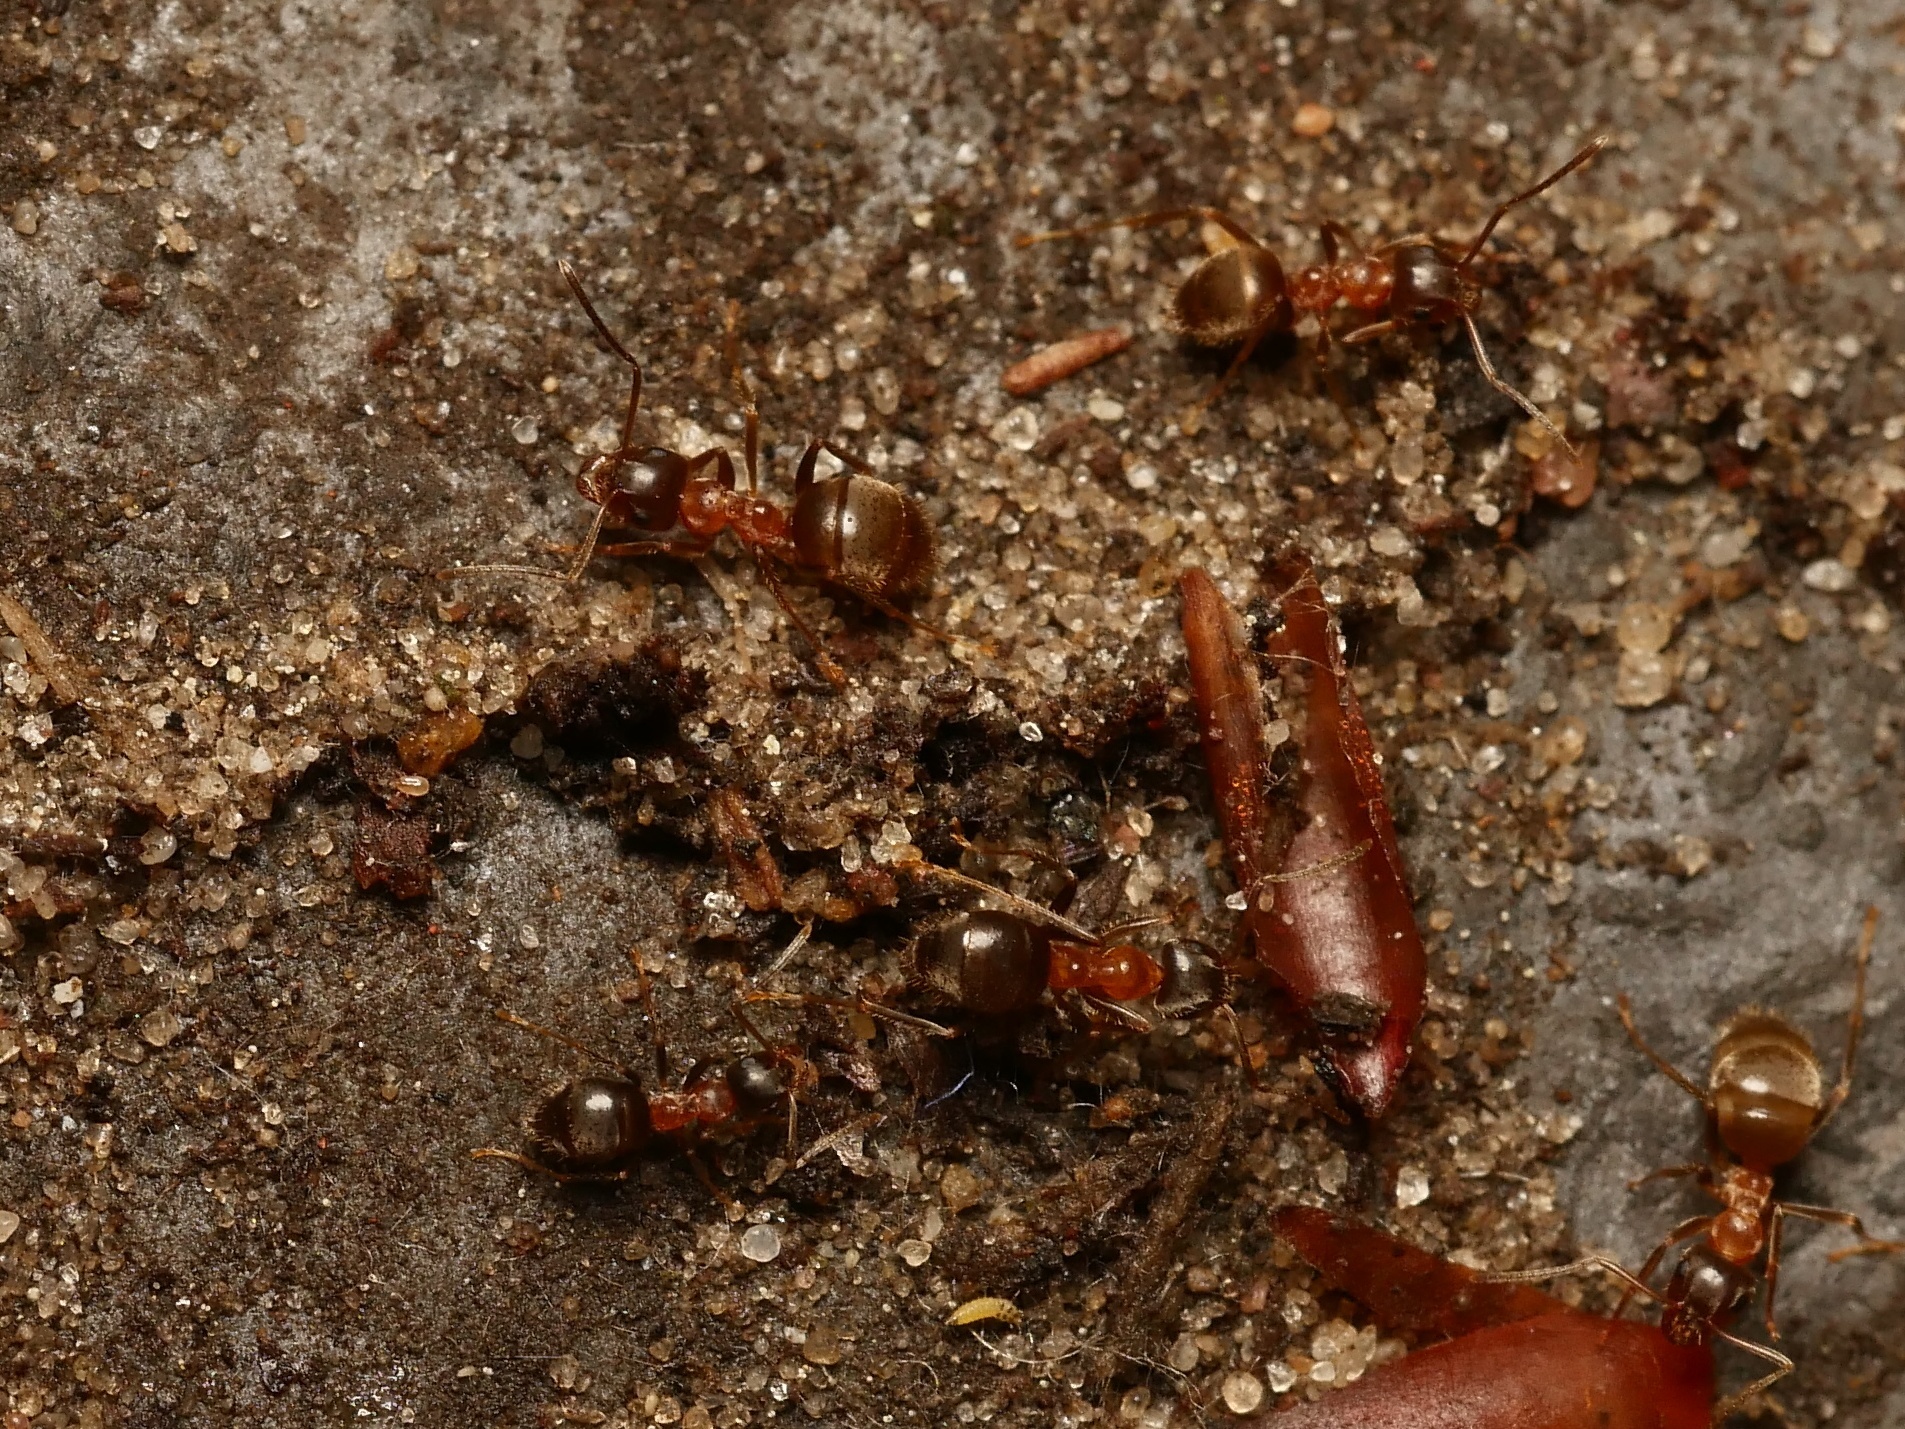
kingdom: Animalia
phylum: Arthropoda
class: Insecta
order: Hymenoptera
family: Formicidae
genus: Lasius
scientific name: Lasius emarginatus
